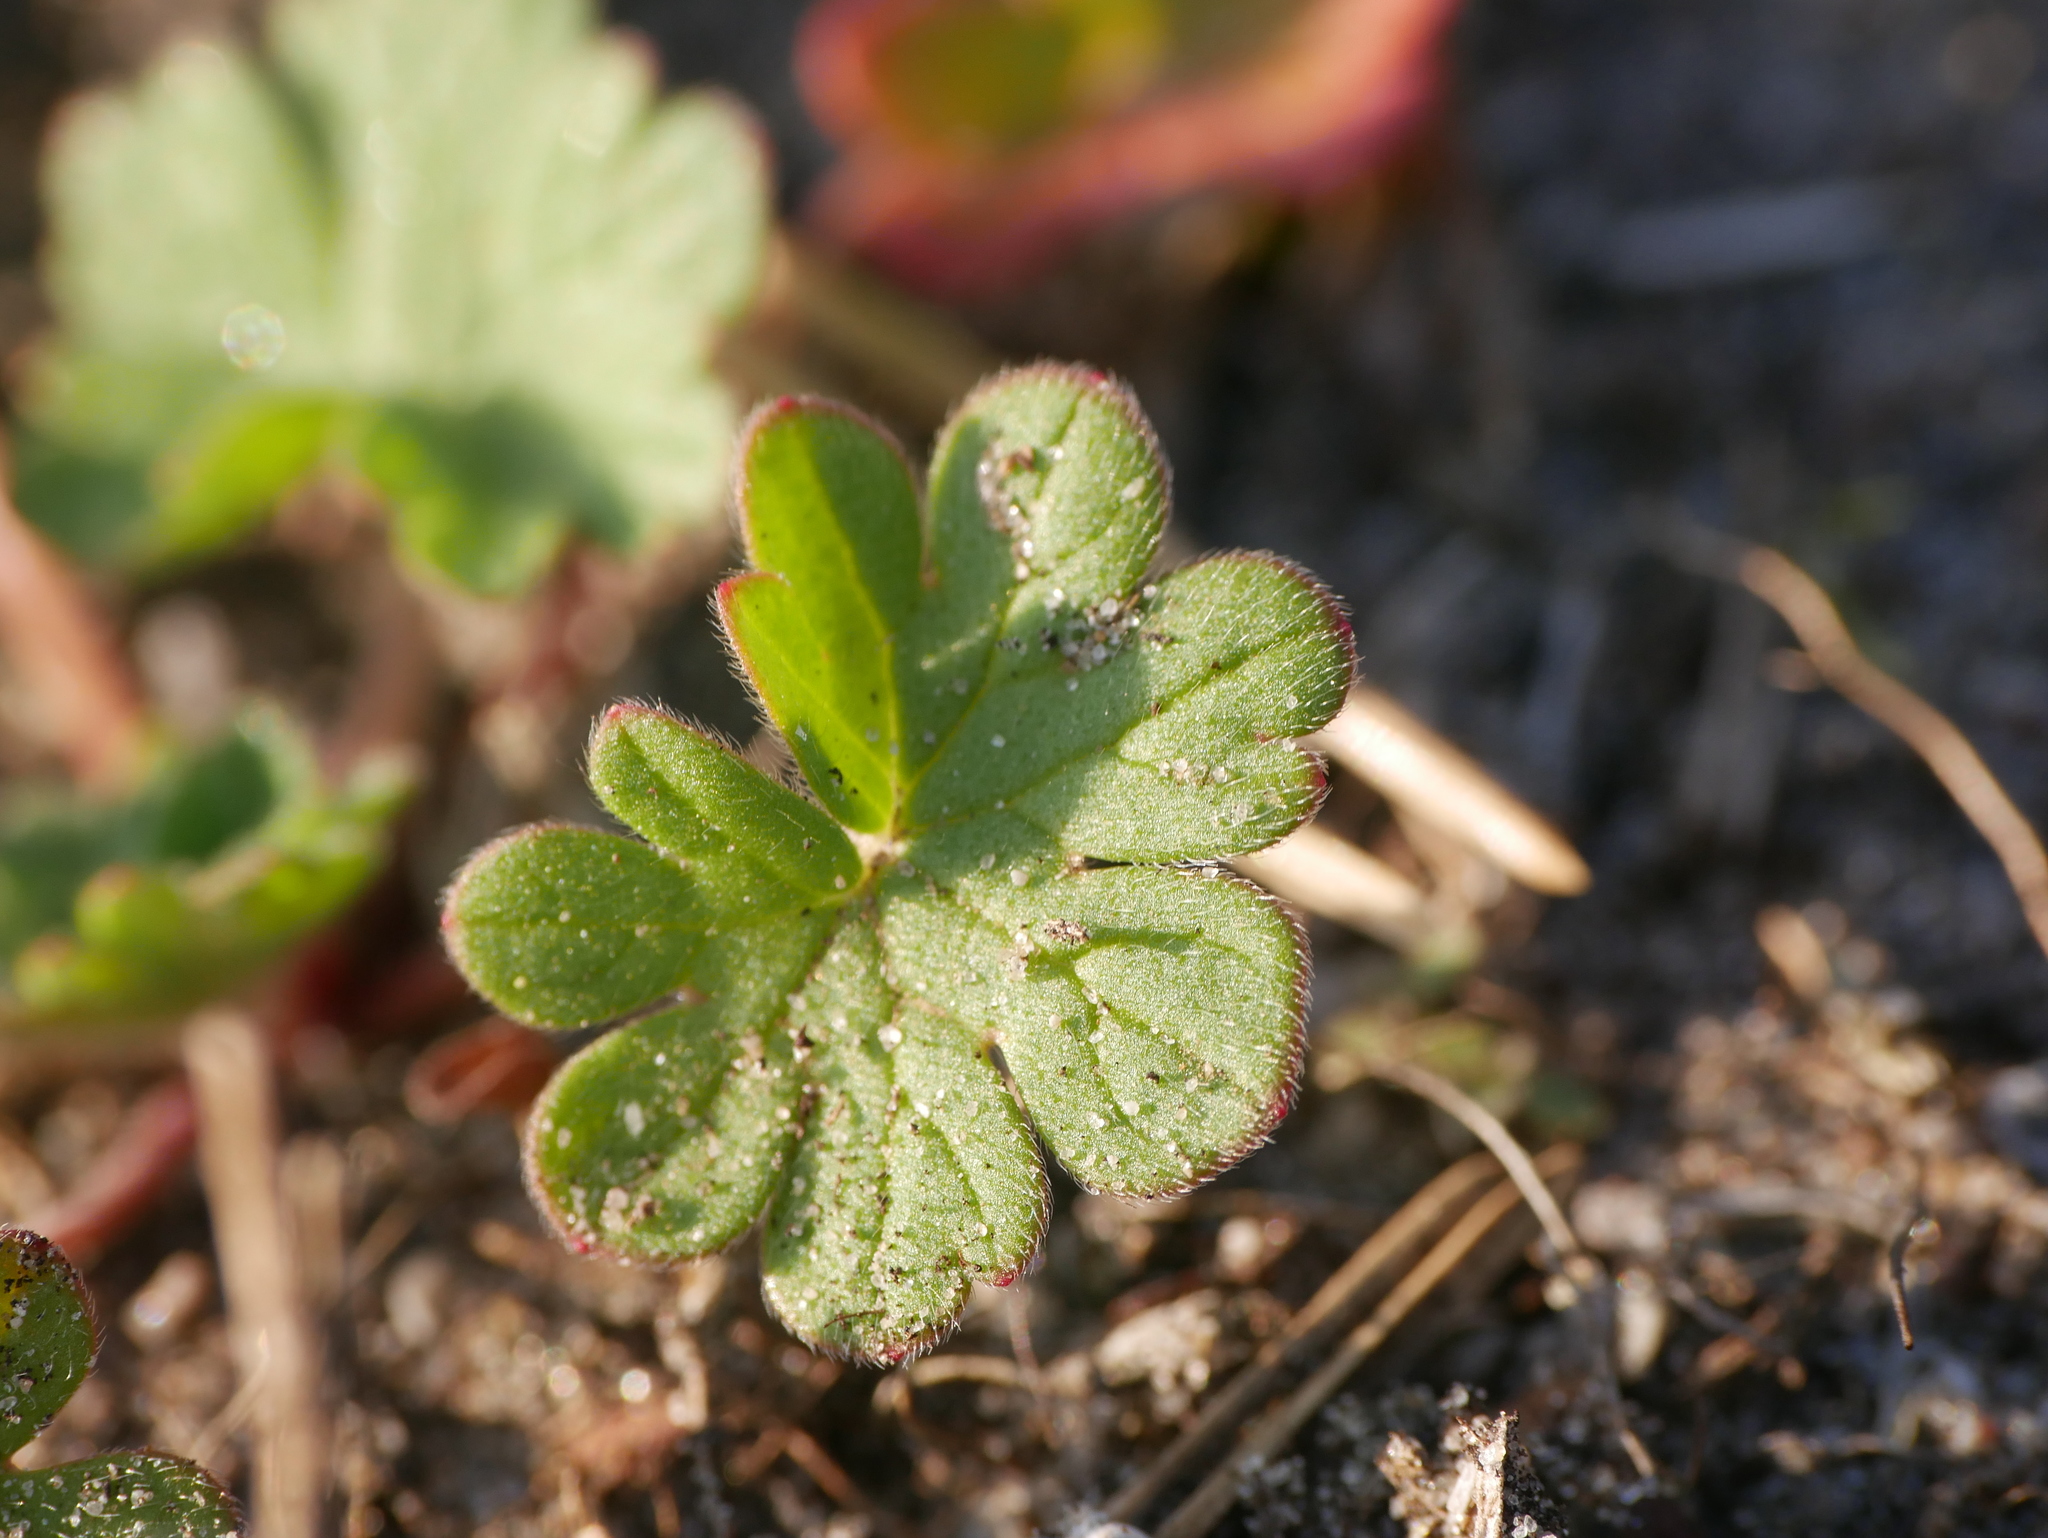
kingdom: Plantae
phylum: Tracheophyta
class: Magnoliopsida
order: Geraniales
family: Geraniaceae
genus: Geranium
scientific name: Geranium molle
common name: Dove's-foot crane's-bill
